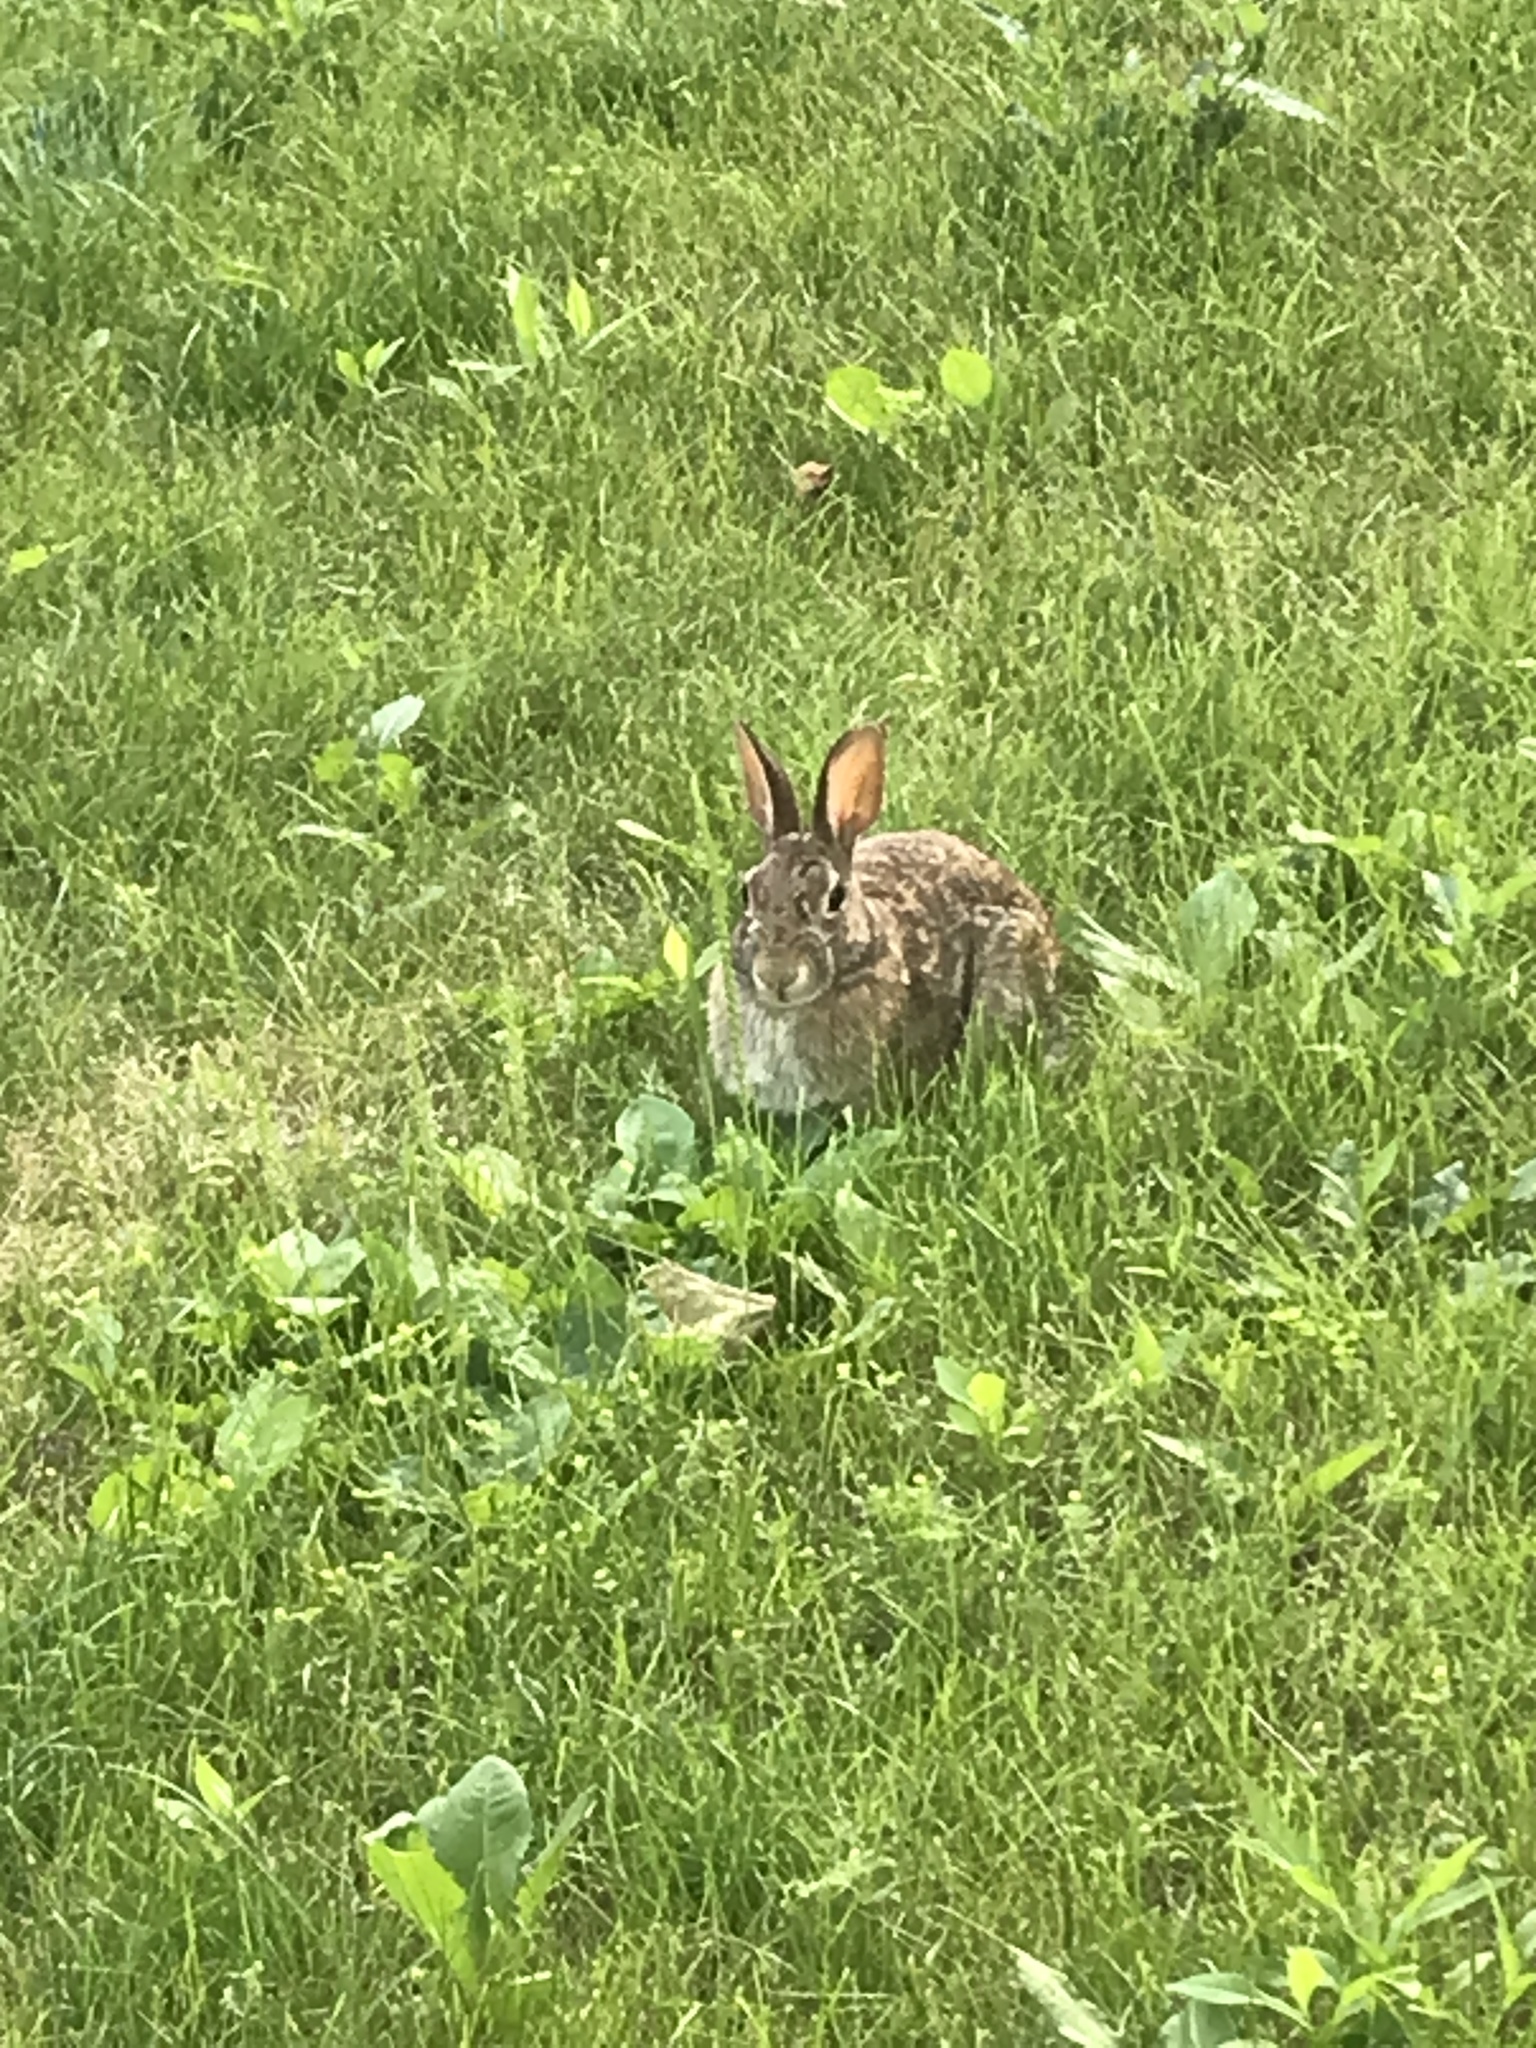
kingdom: Animalia
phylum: Chordata
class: Mammalia
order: Lagomorpha
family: Leporidae
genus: Sylvilagus
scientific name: Sylvilagus floridanus
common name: Eastern cottontail
